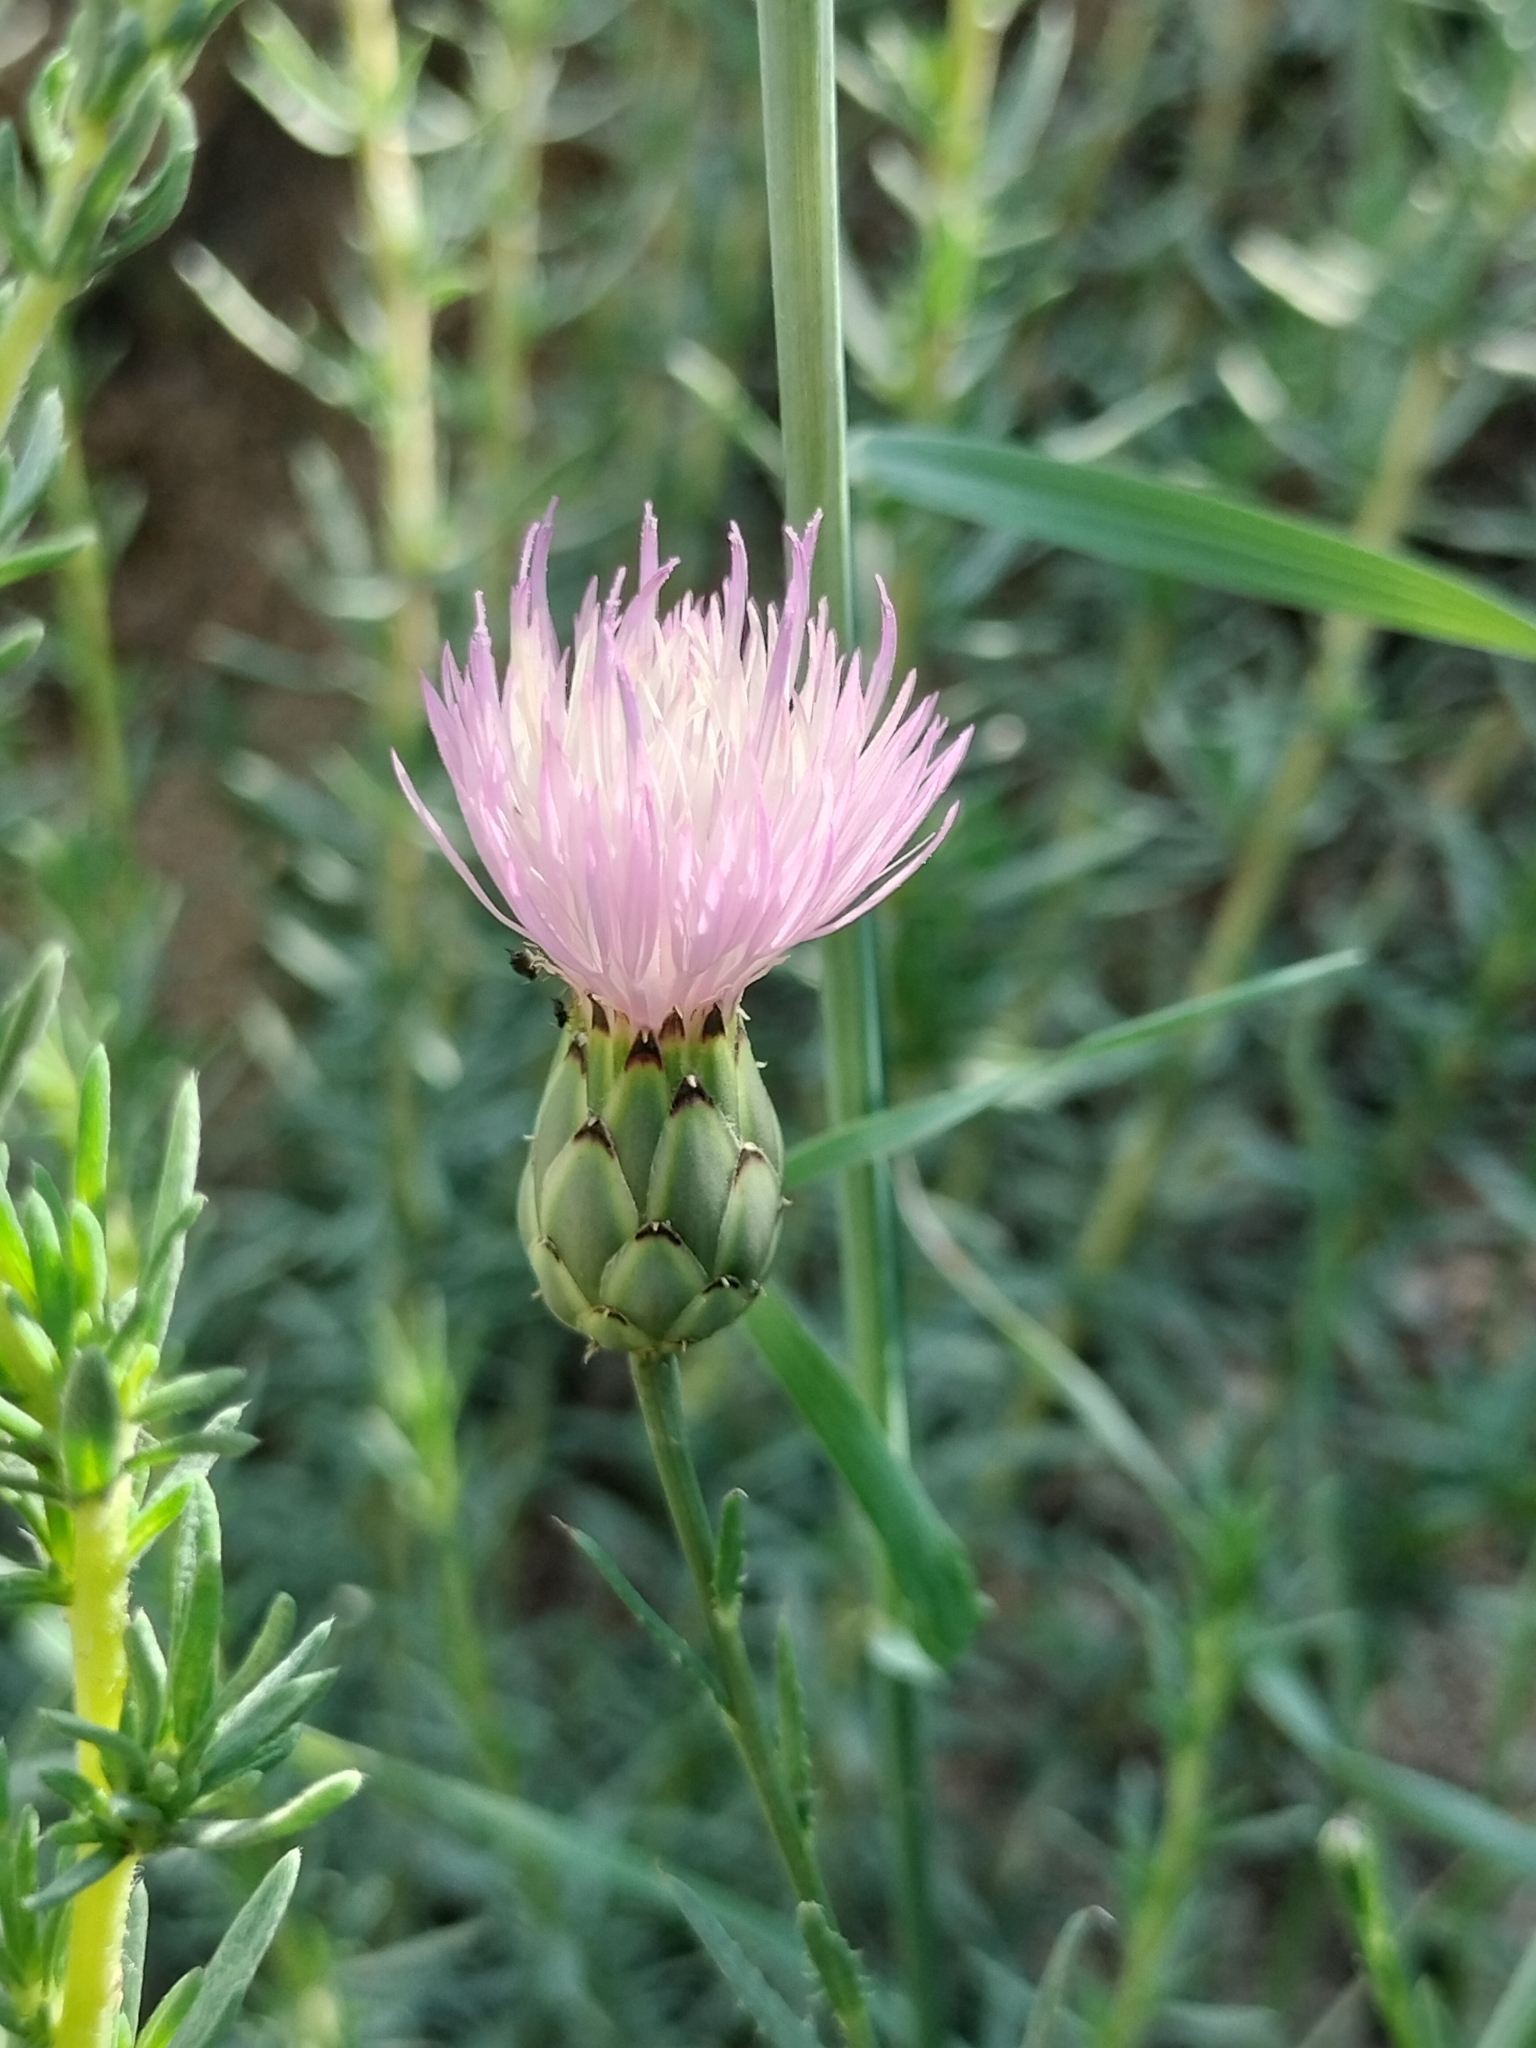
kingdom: Plantae
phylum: Tracheophyta
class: Magnoliopsida
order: Asterales
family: Asteraceae
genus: Mantisalca
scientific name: Mantisalca salmantica
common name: Dagger flower
